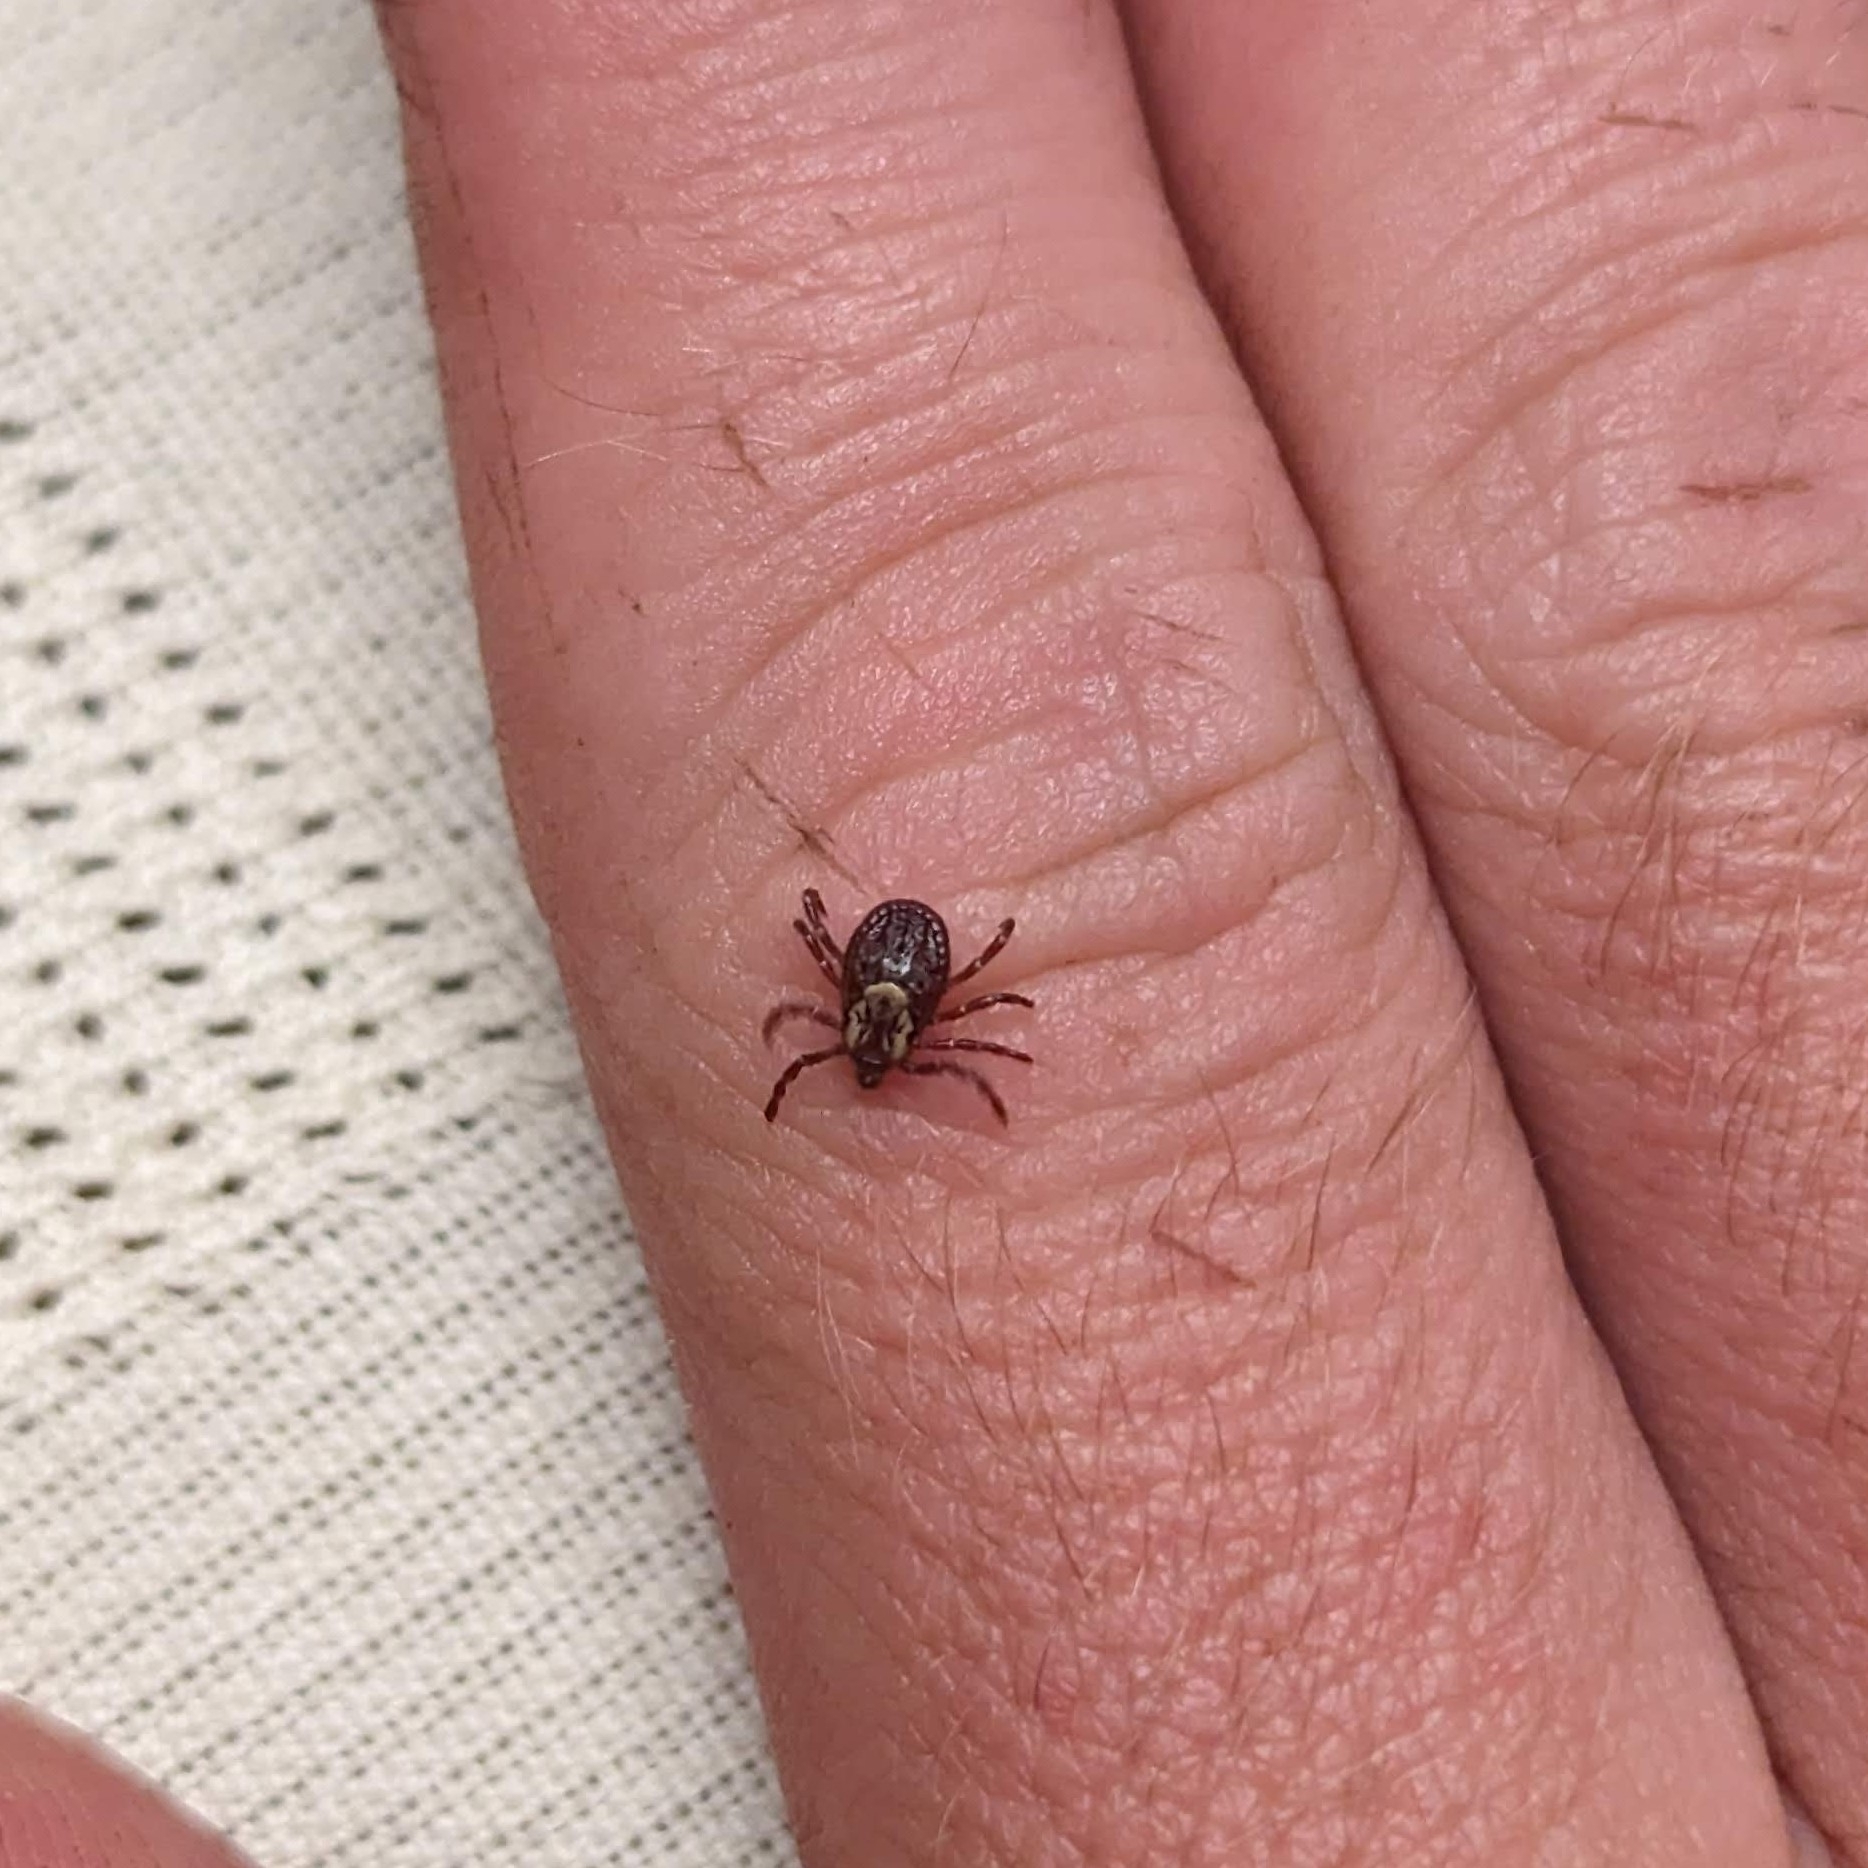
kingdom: Animalia
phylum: Arthropoda
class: Arachnida
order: Ixodida
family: Ixodidae
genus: Dermacentor
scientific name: Dermacentor variabilis
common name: American dog tick
